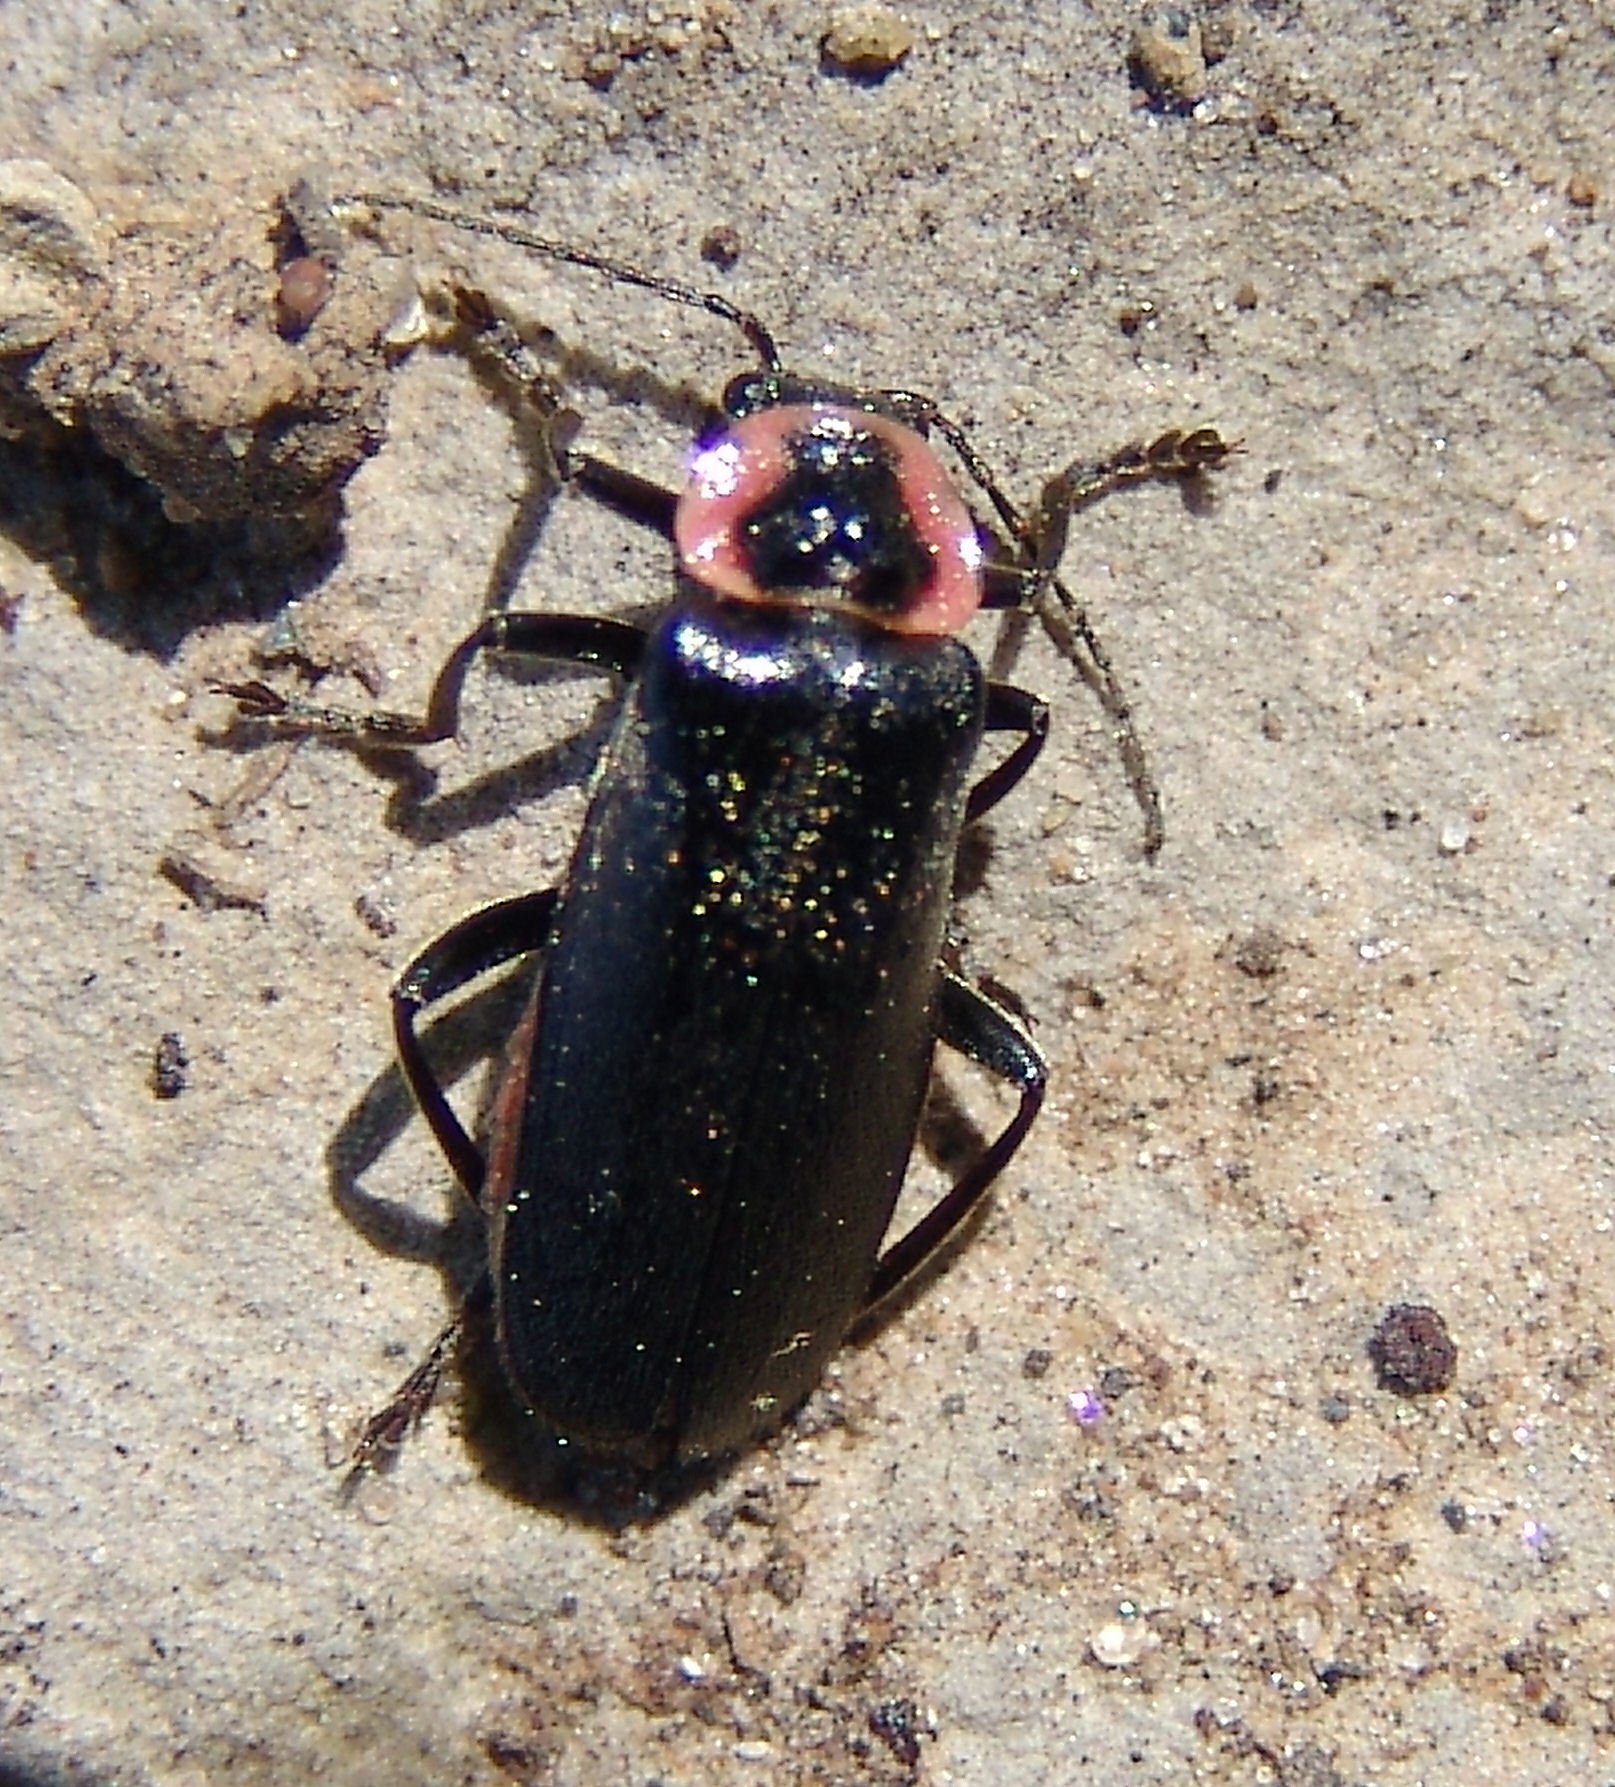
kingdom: Animalia
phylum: Arthropoda
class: Insecta
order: Coleoptera
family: Cantharidae
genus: Atalantycha
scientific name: Atalantycha neglecta
